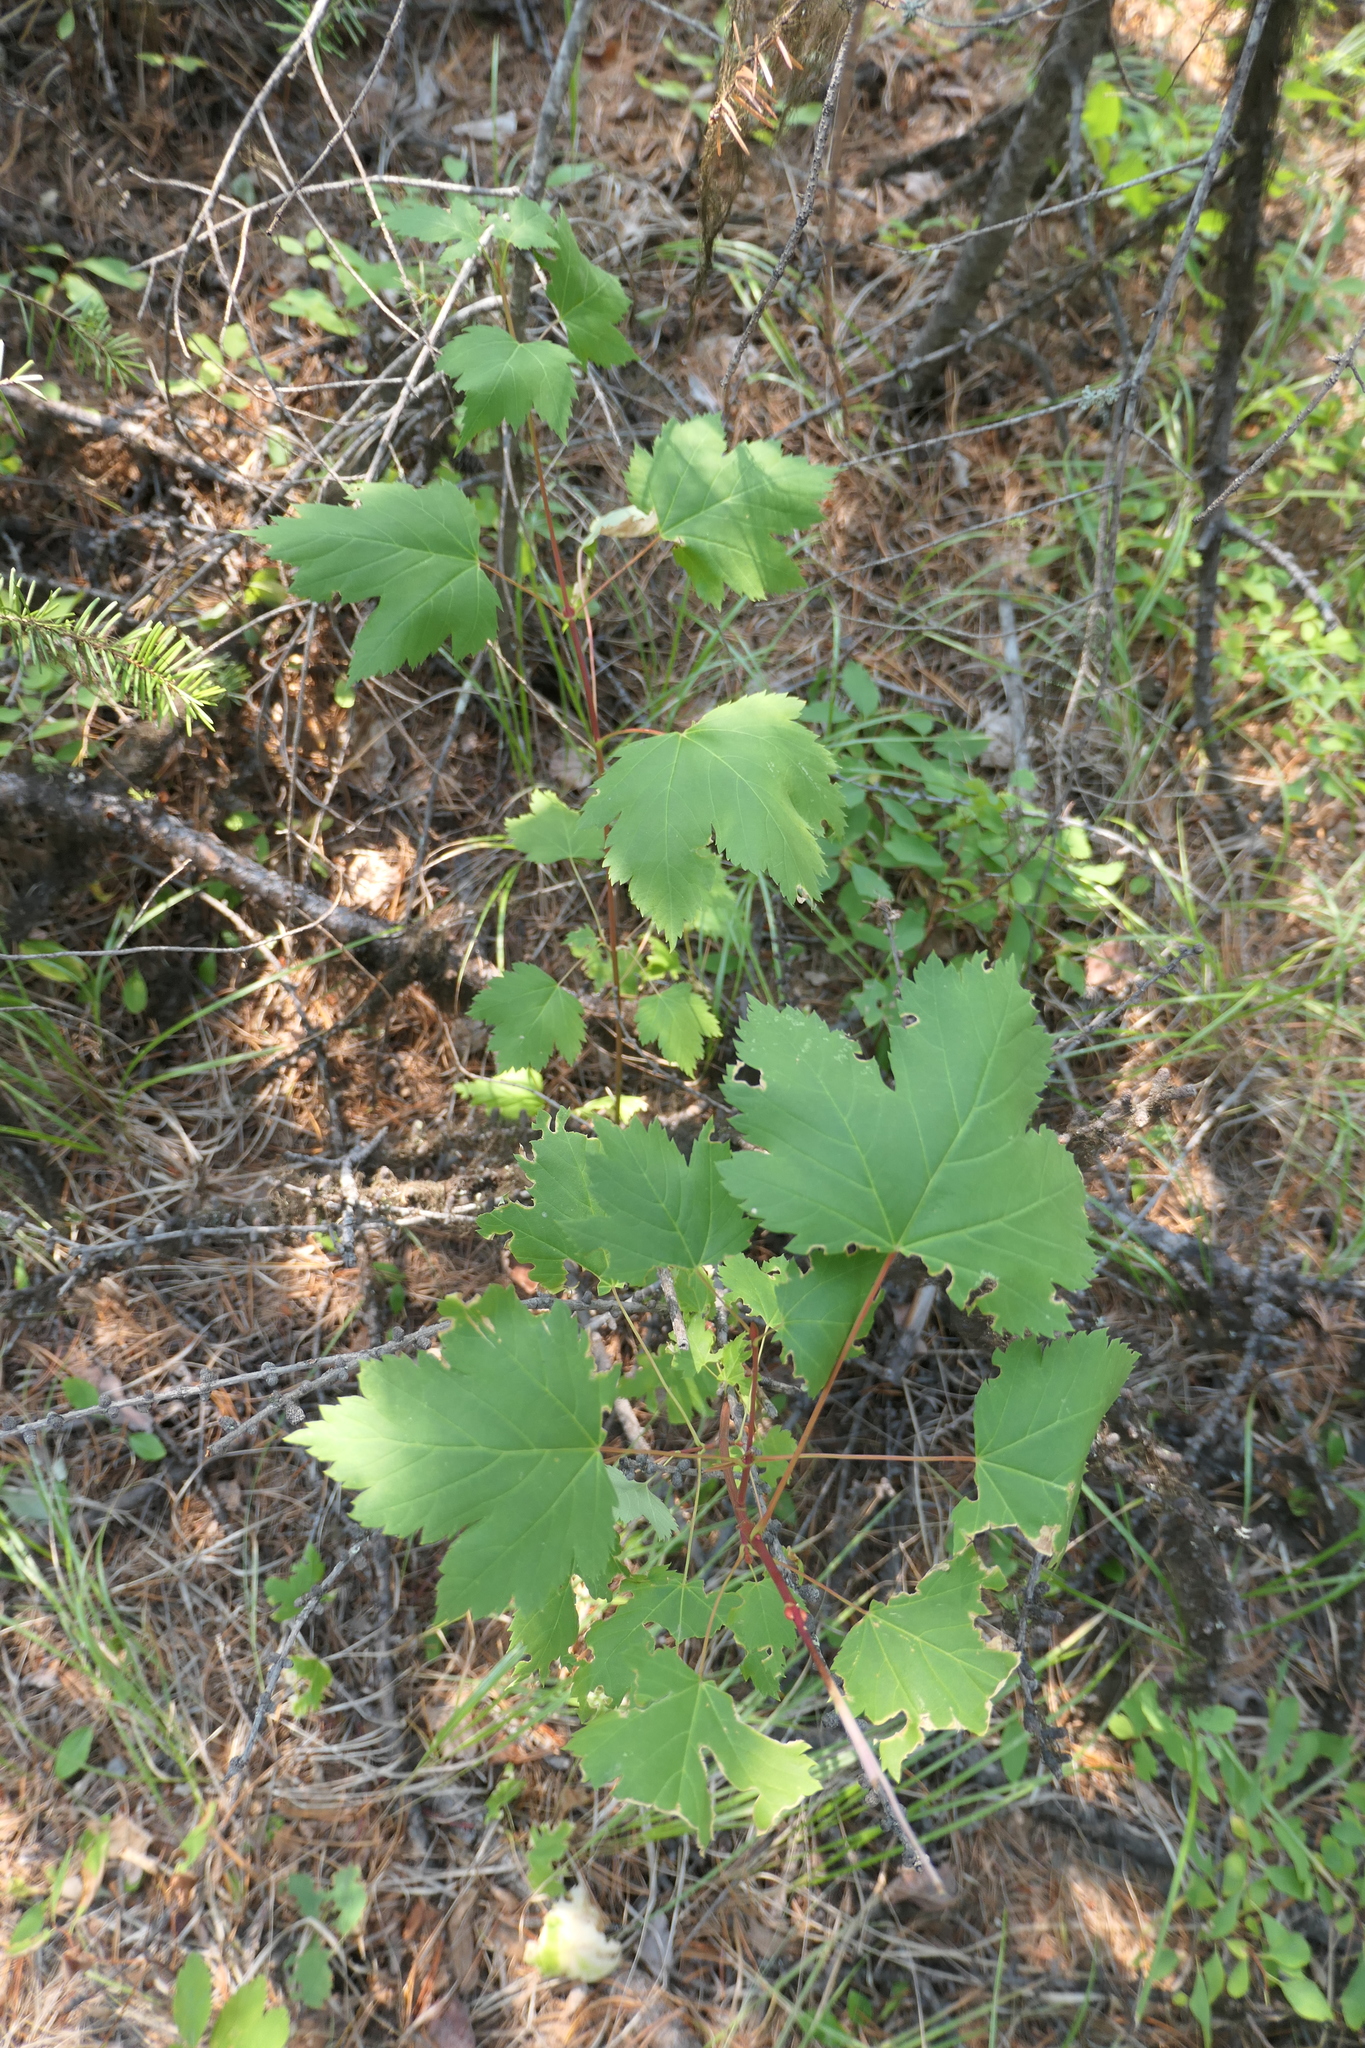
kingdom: Plantae
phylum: Tracheophyta
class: Magnoliopsida
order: Sapindales
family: Sapindaceae
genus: Acer
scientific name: Acer glabrum
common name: Rocky mountain maple
